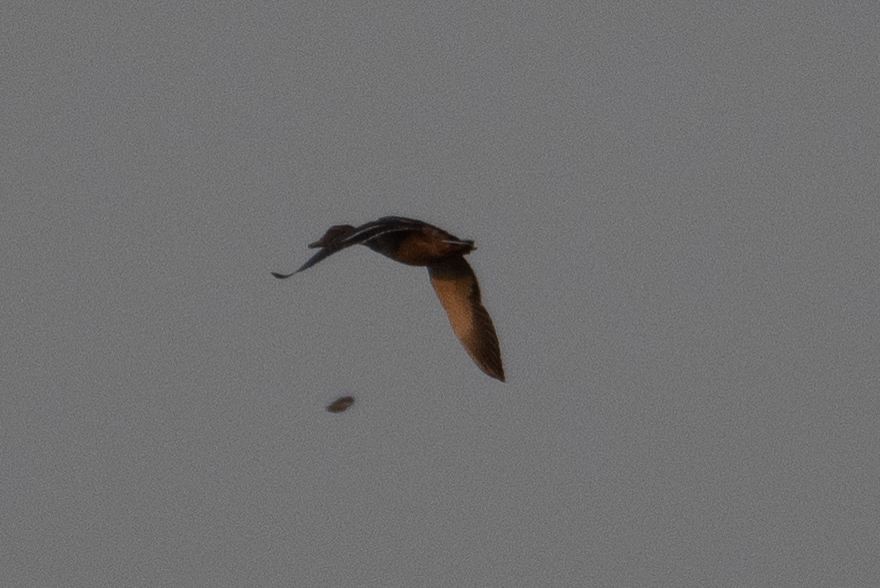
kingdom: Animalia
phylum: Chordata
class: Aves
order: Anseriformes
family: Anatidae
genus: Anas
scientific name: Anas platyrhynchos
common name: Mallard
